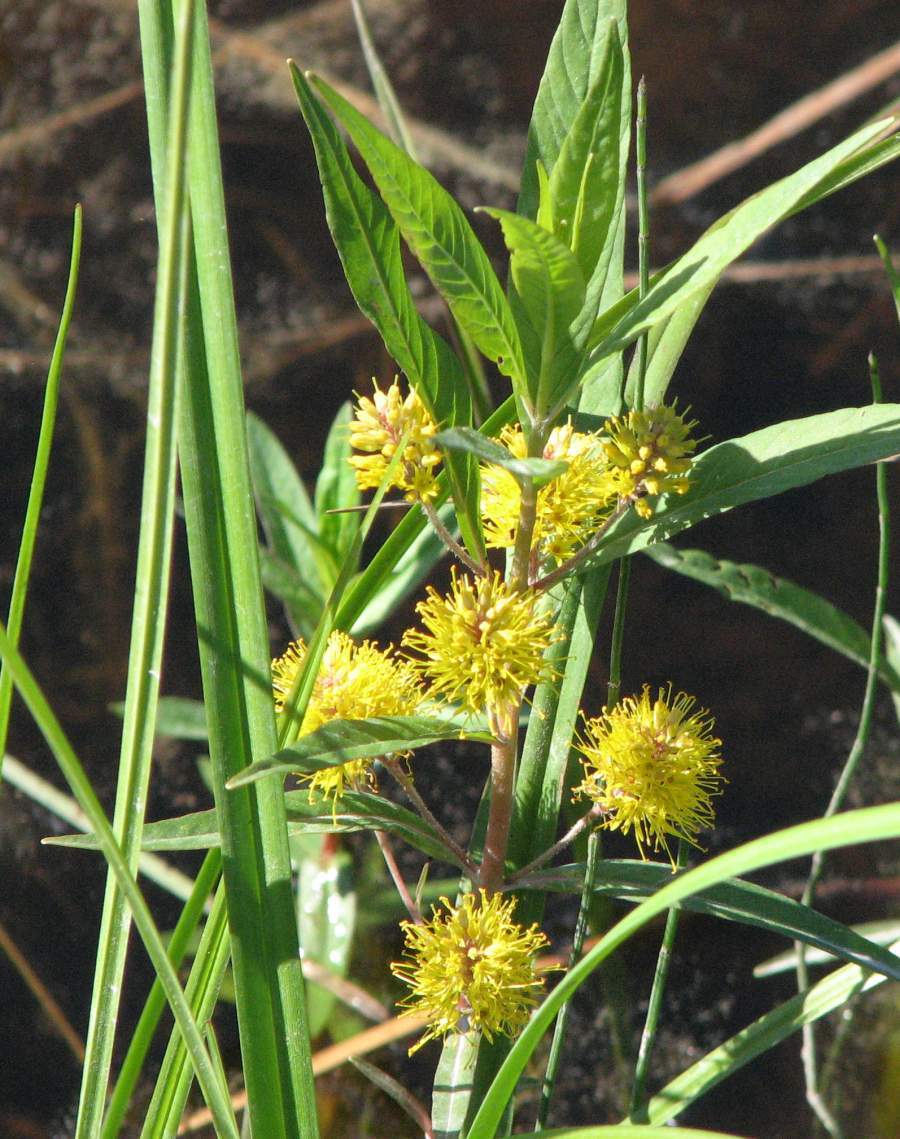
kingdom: Plantae
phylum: Tracheophyta
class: Magnoliopsida
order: Ericales
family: Primulaceae
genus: Lysimachia
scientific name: Lysimachia thyrsiflora
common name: Tufted loosestrife
